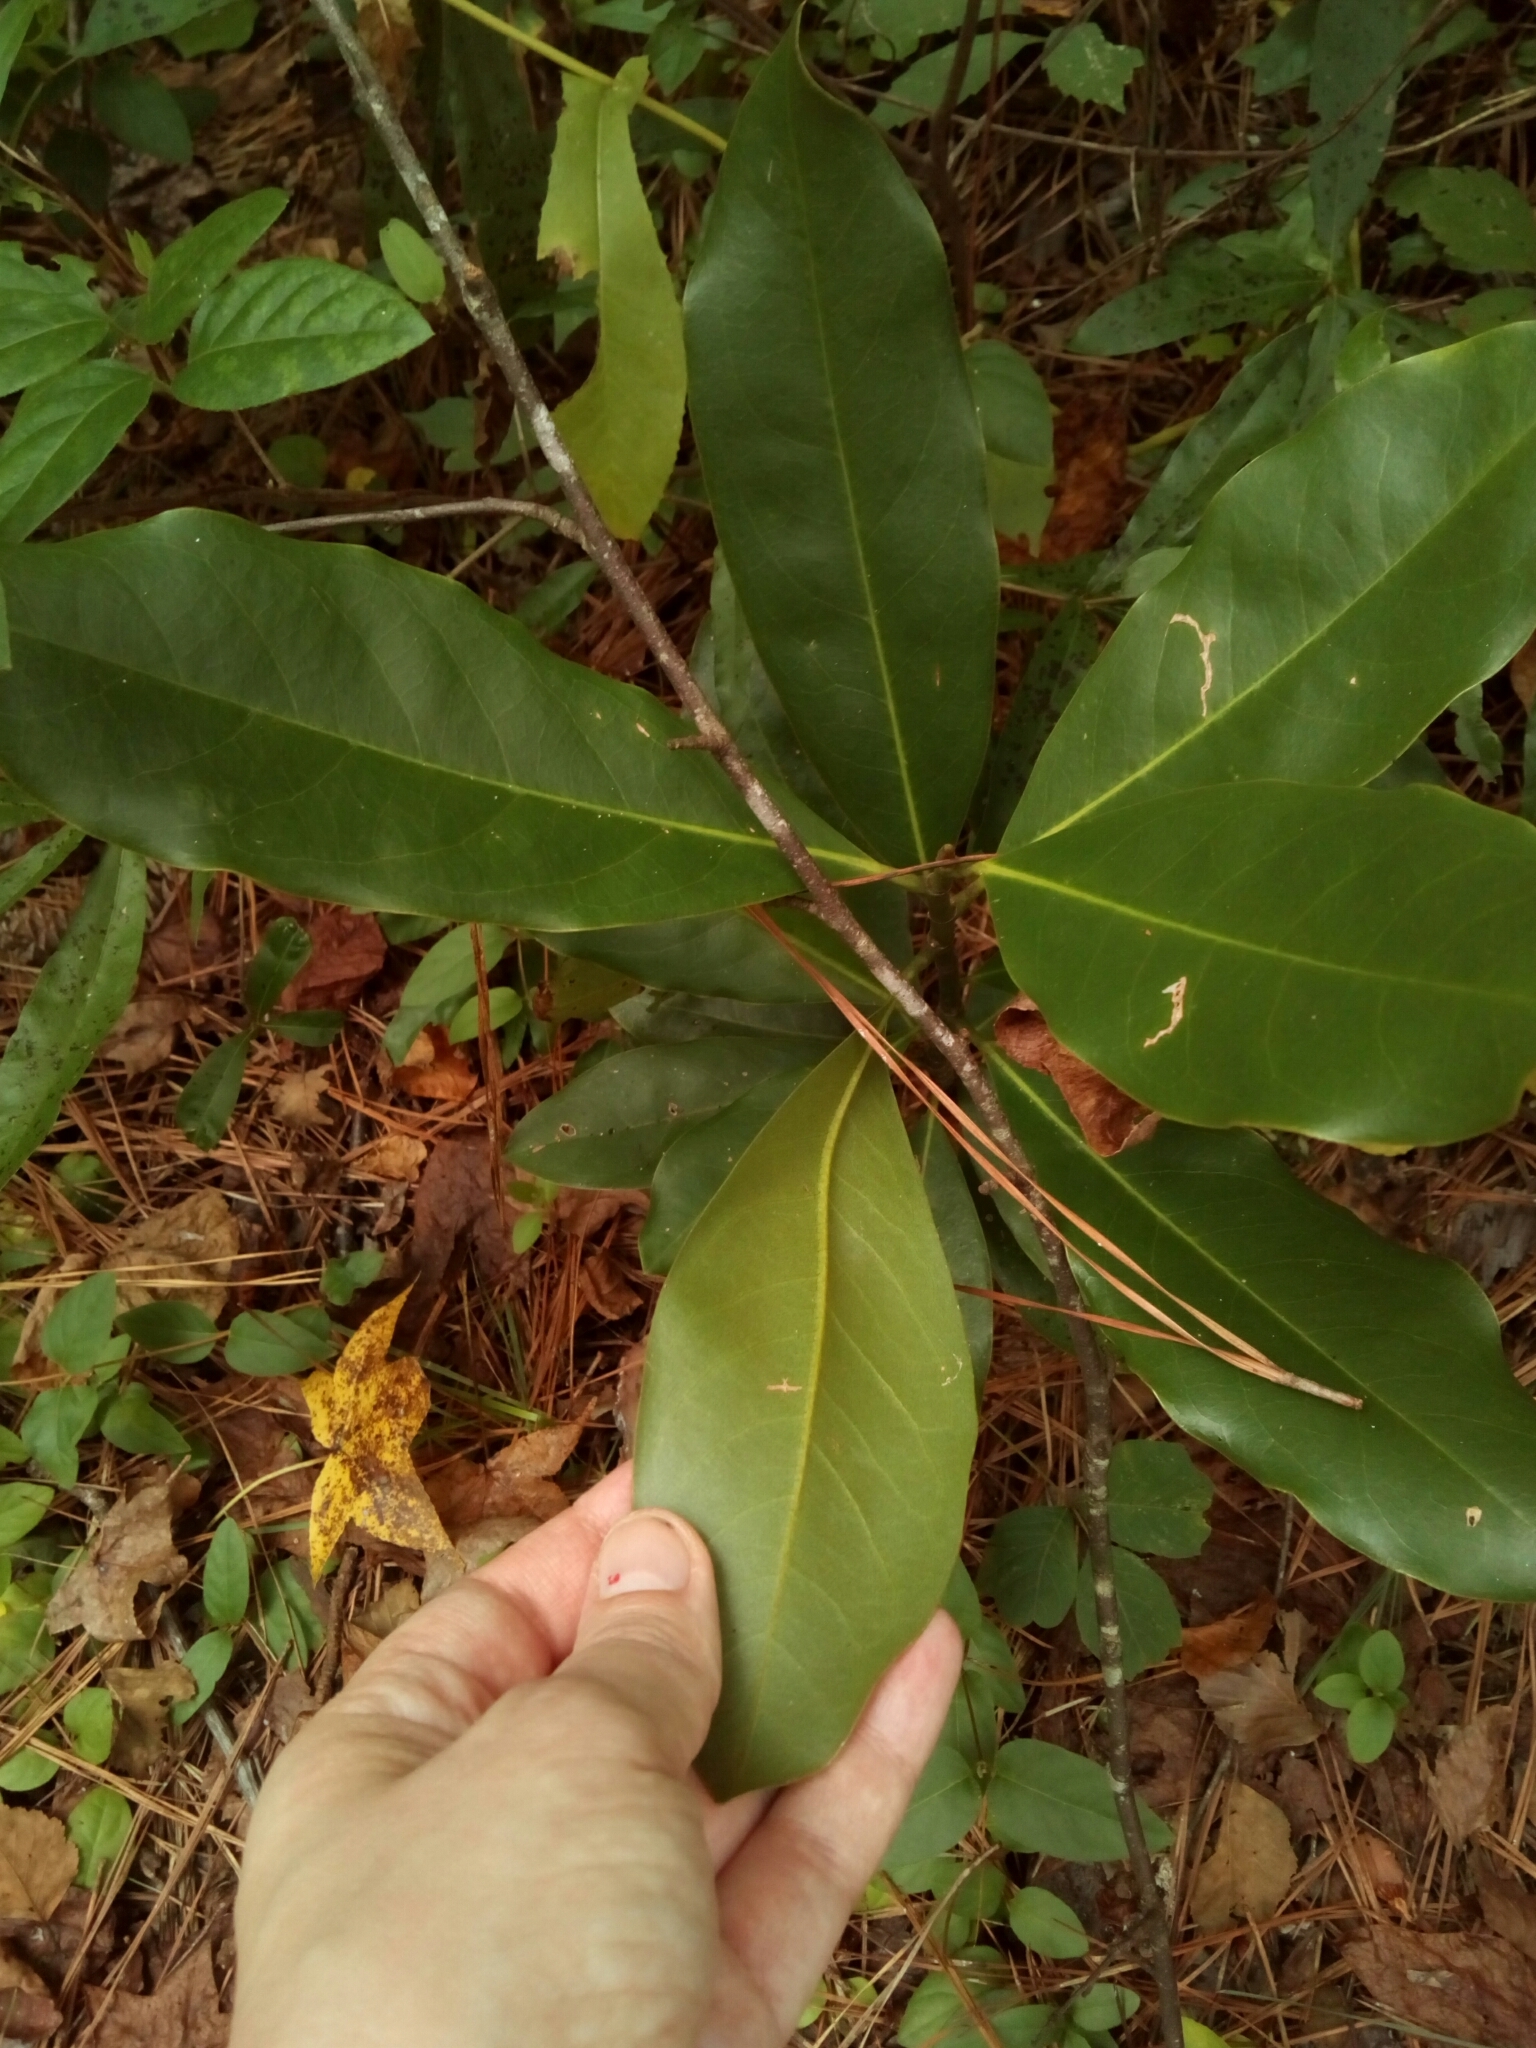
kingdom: Plantae
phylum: Tracheophyta
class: Magnoliopsida
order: Magnoliales
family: Magnoliaceae
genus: Magnolia
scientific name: Magnolia grandiflora
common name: Southern magnolia
